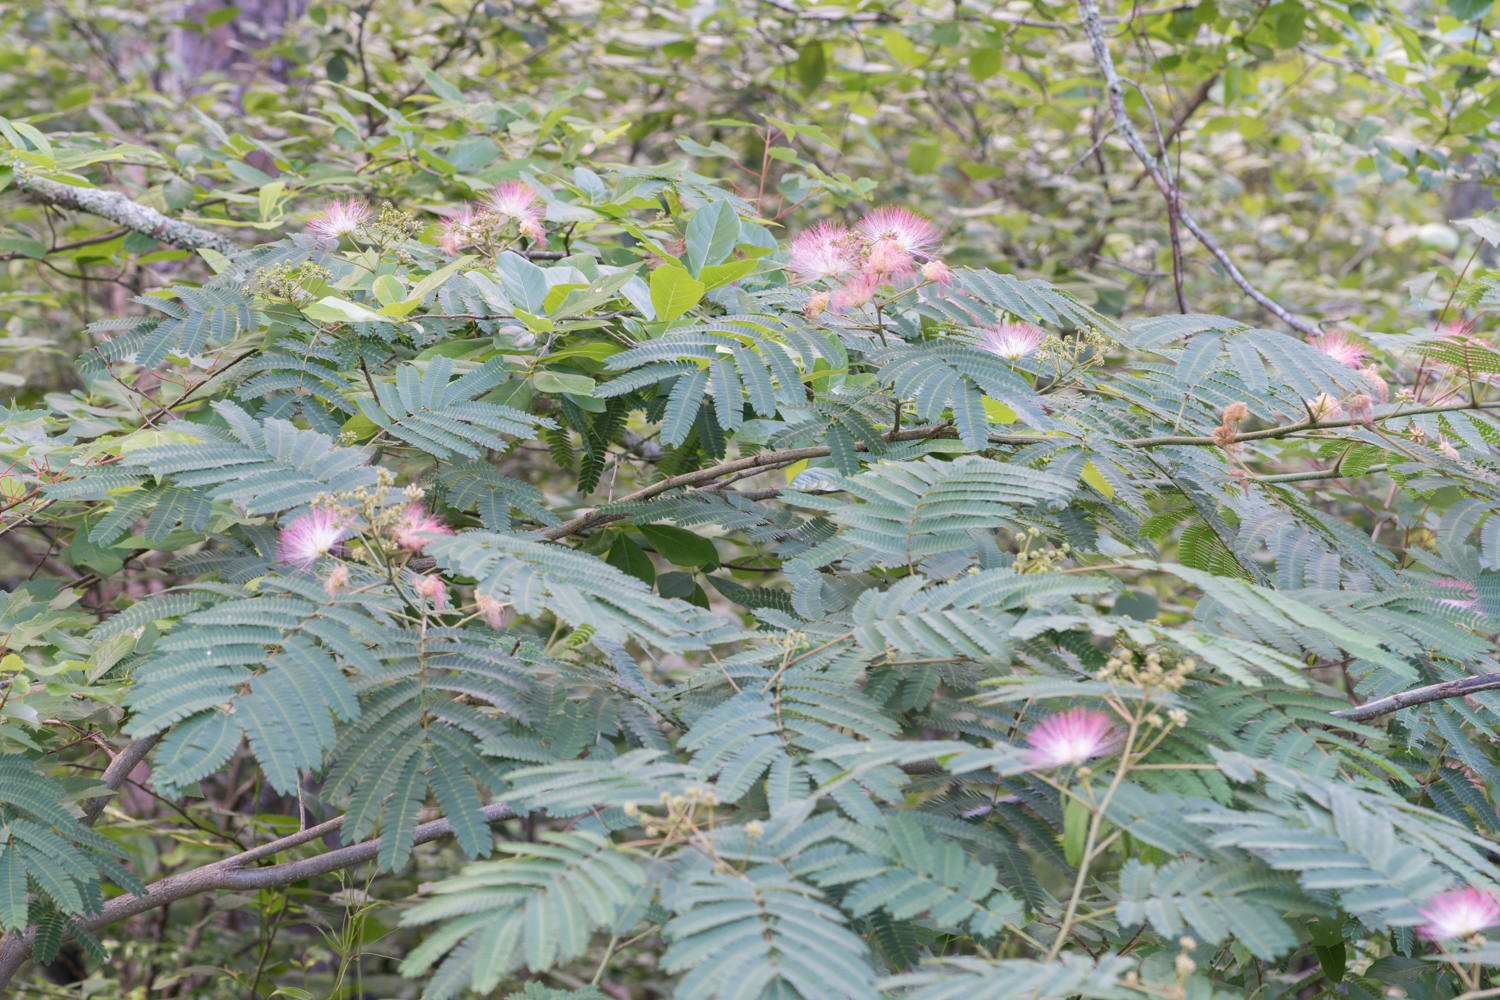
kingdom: Plantae
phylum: Tracheophyta
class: Magnoliopsida
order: Fabales
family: Fabaceae
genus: Albizia
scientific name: Albizia julibrissin
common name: Silktree
